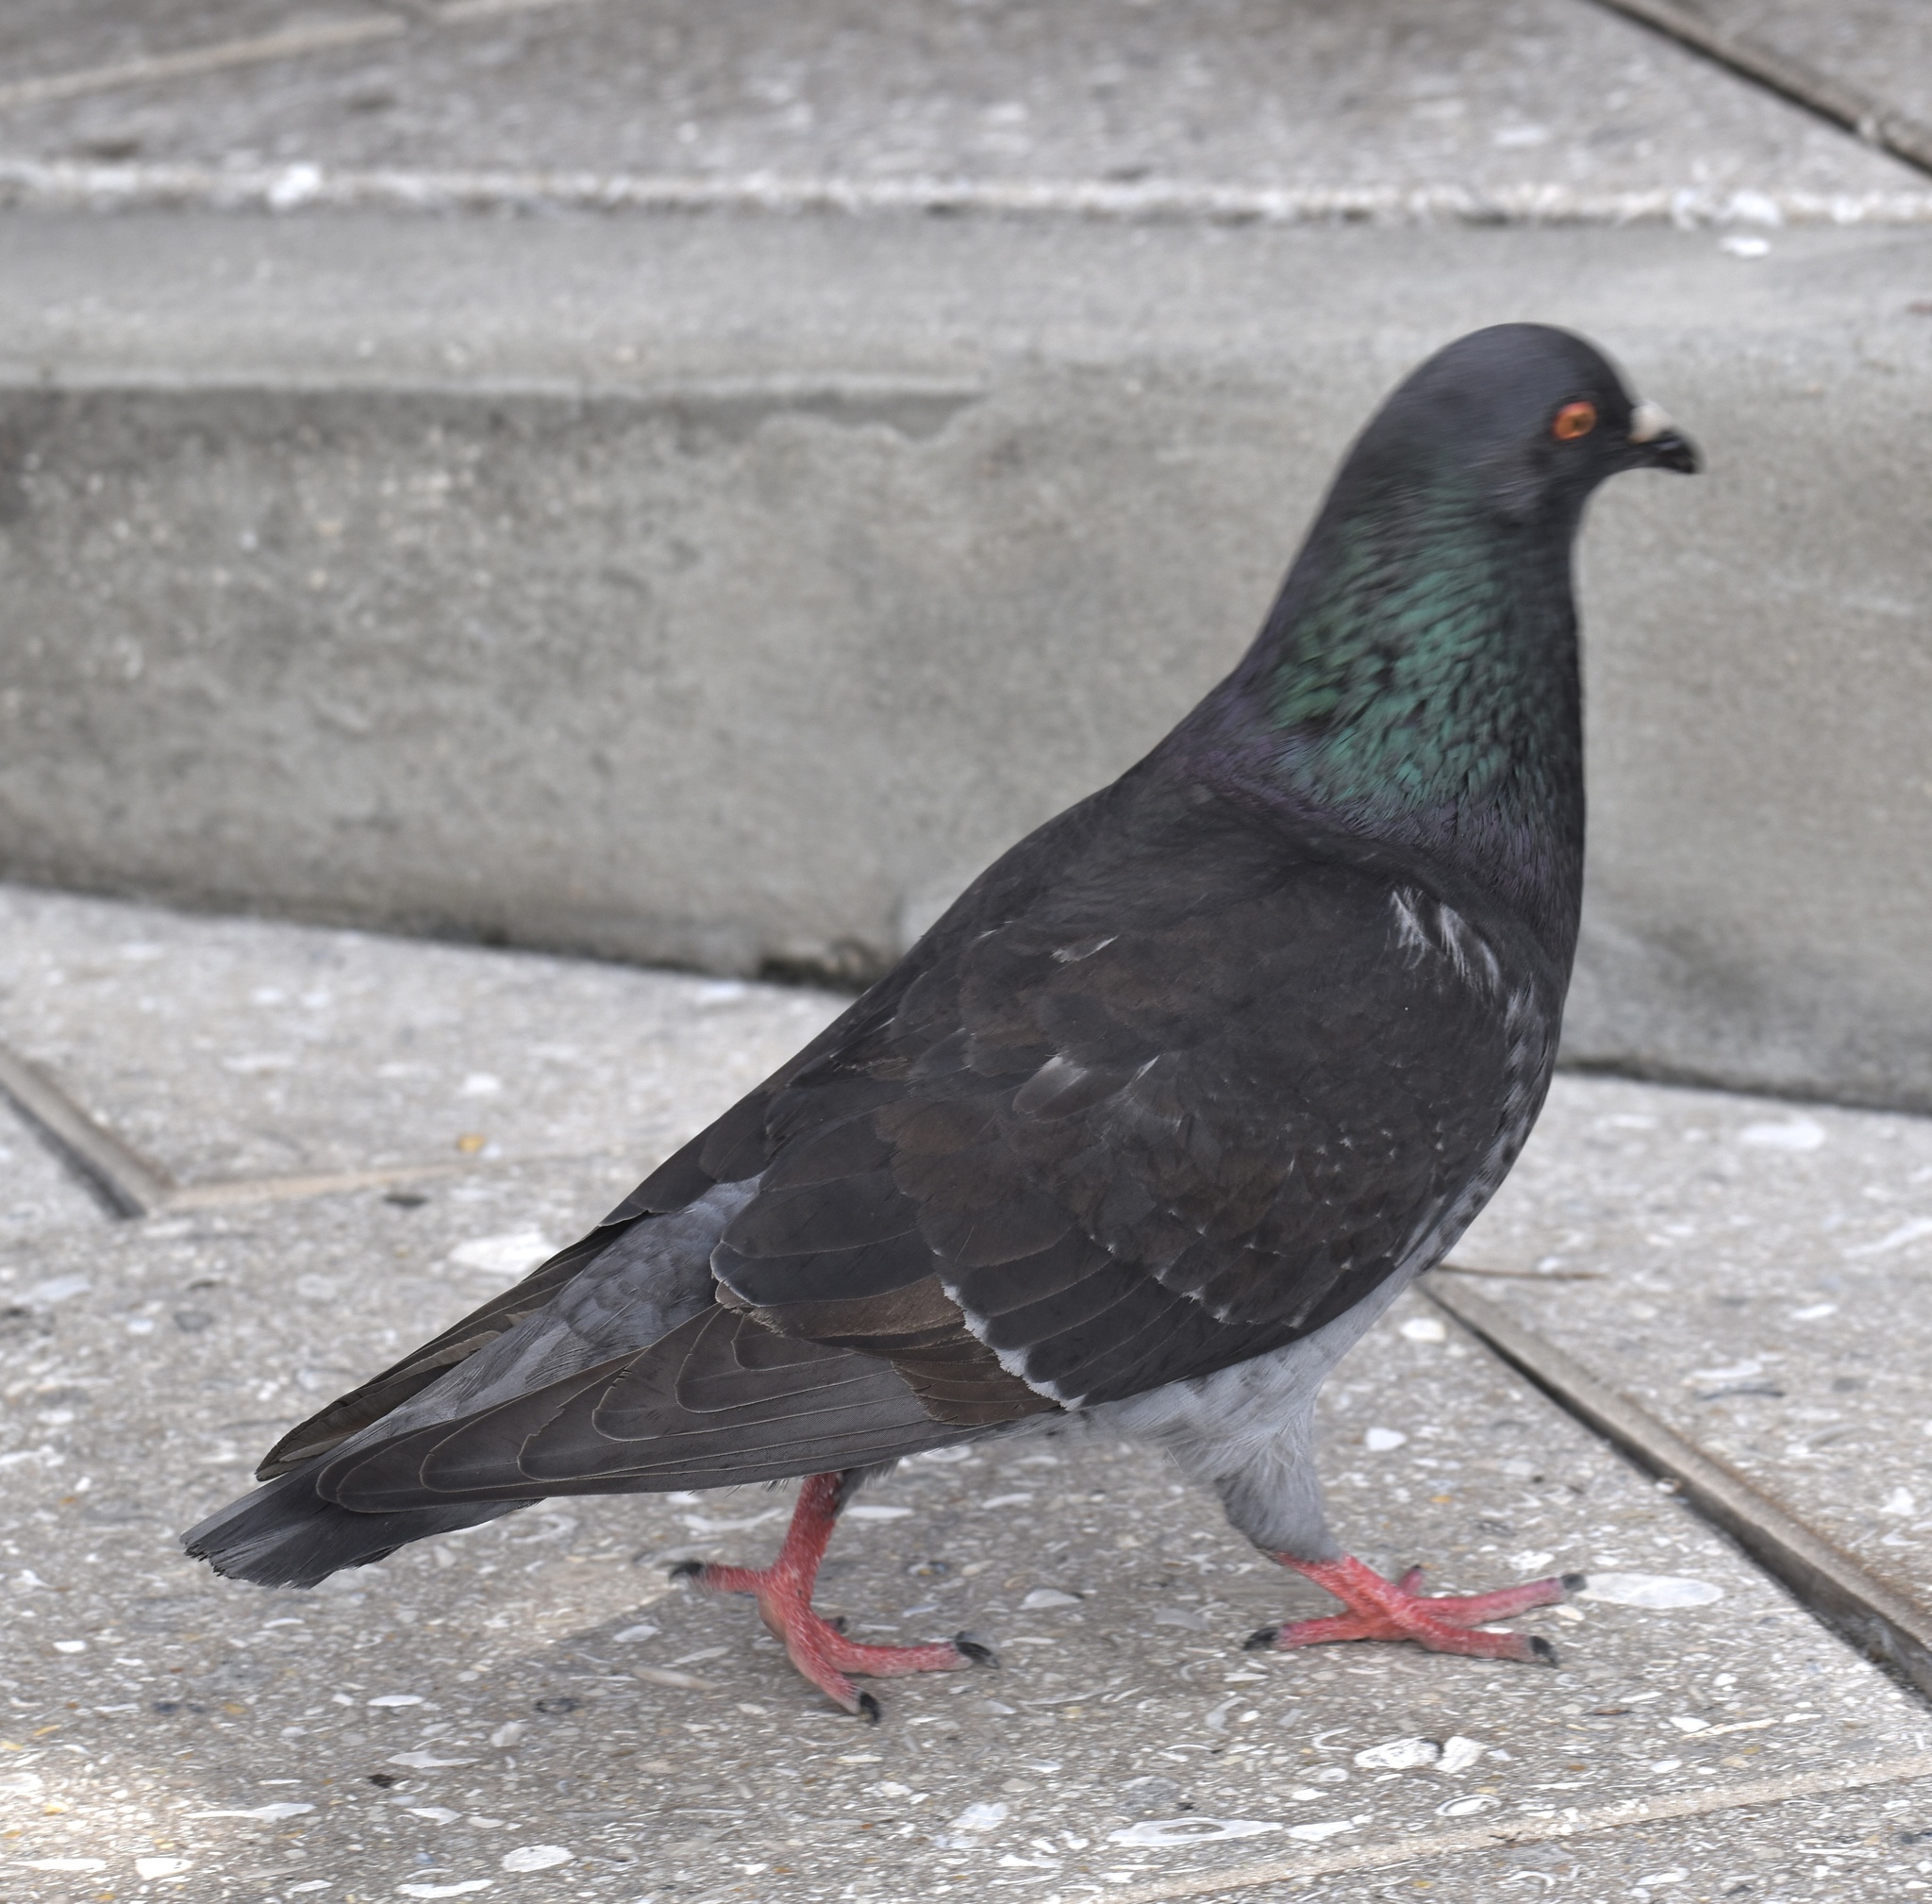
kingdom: Animalia
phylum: Chordata
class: Aves
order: Columbiformes
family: Columbidae
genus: Columba
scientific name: Columba livia
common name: Rock pigeon
